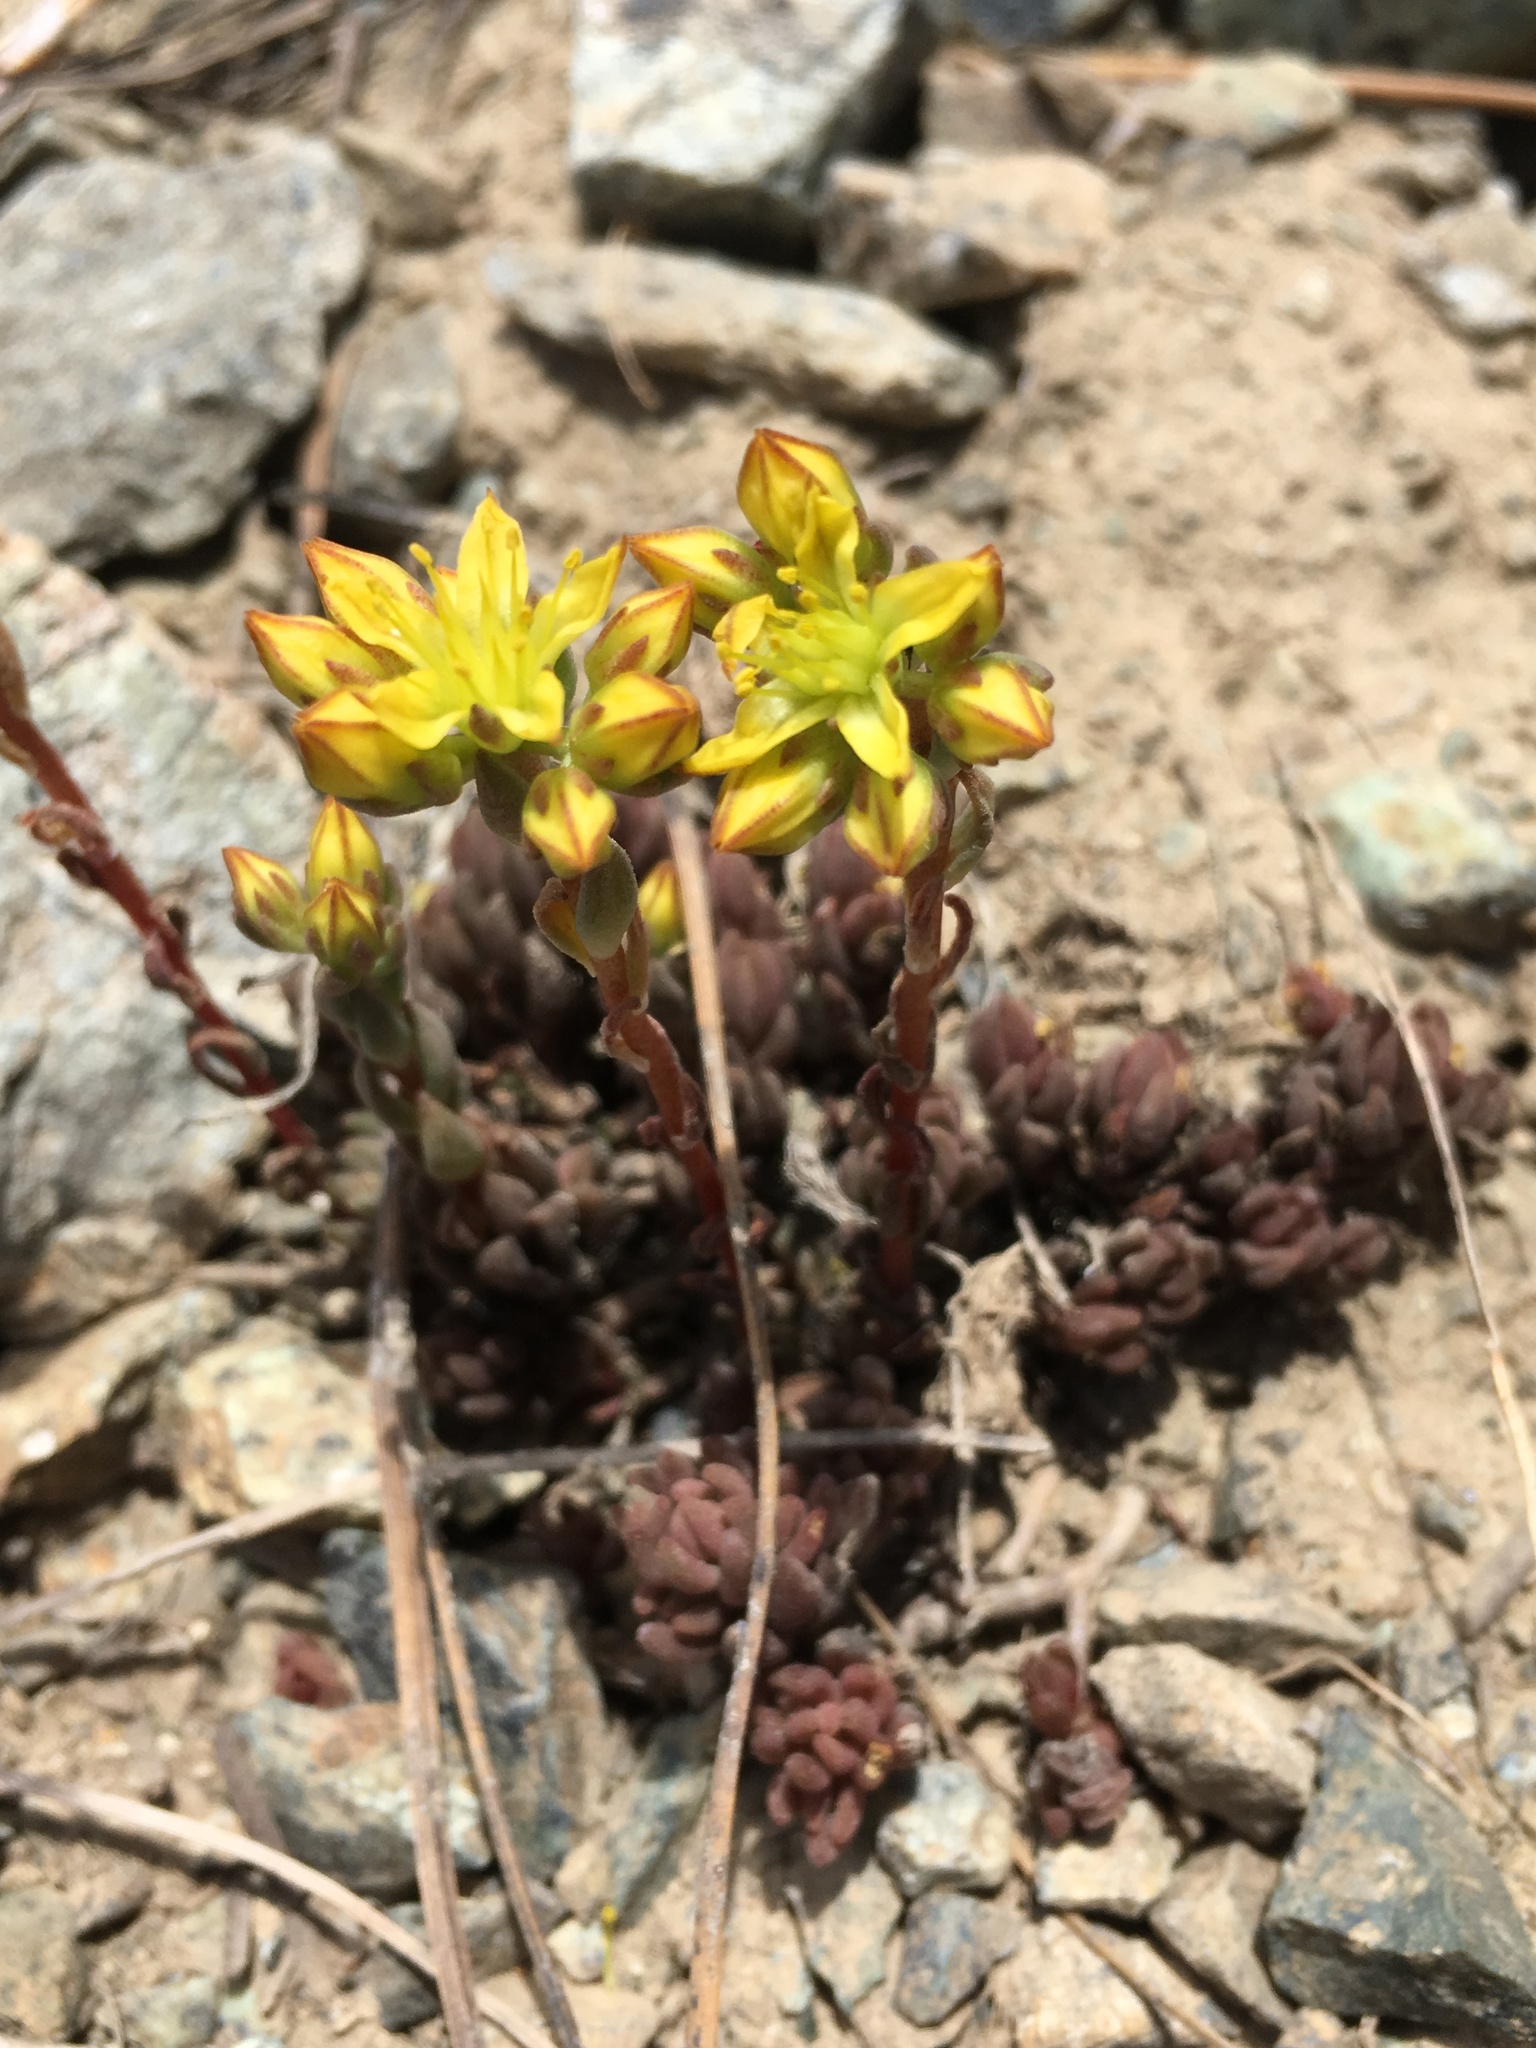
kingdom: Plantae
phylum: Tracheophyta
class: Magnoliopsida
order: Saxifragales
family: Crassulaceae
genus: Sedum
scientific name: Sedum lanceolatum
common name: Common stonecrop
